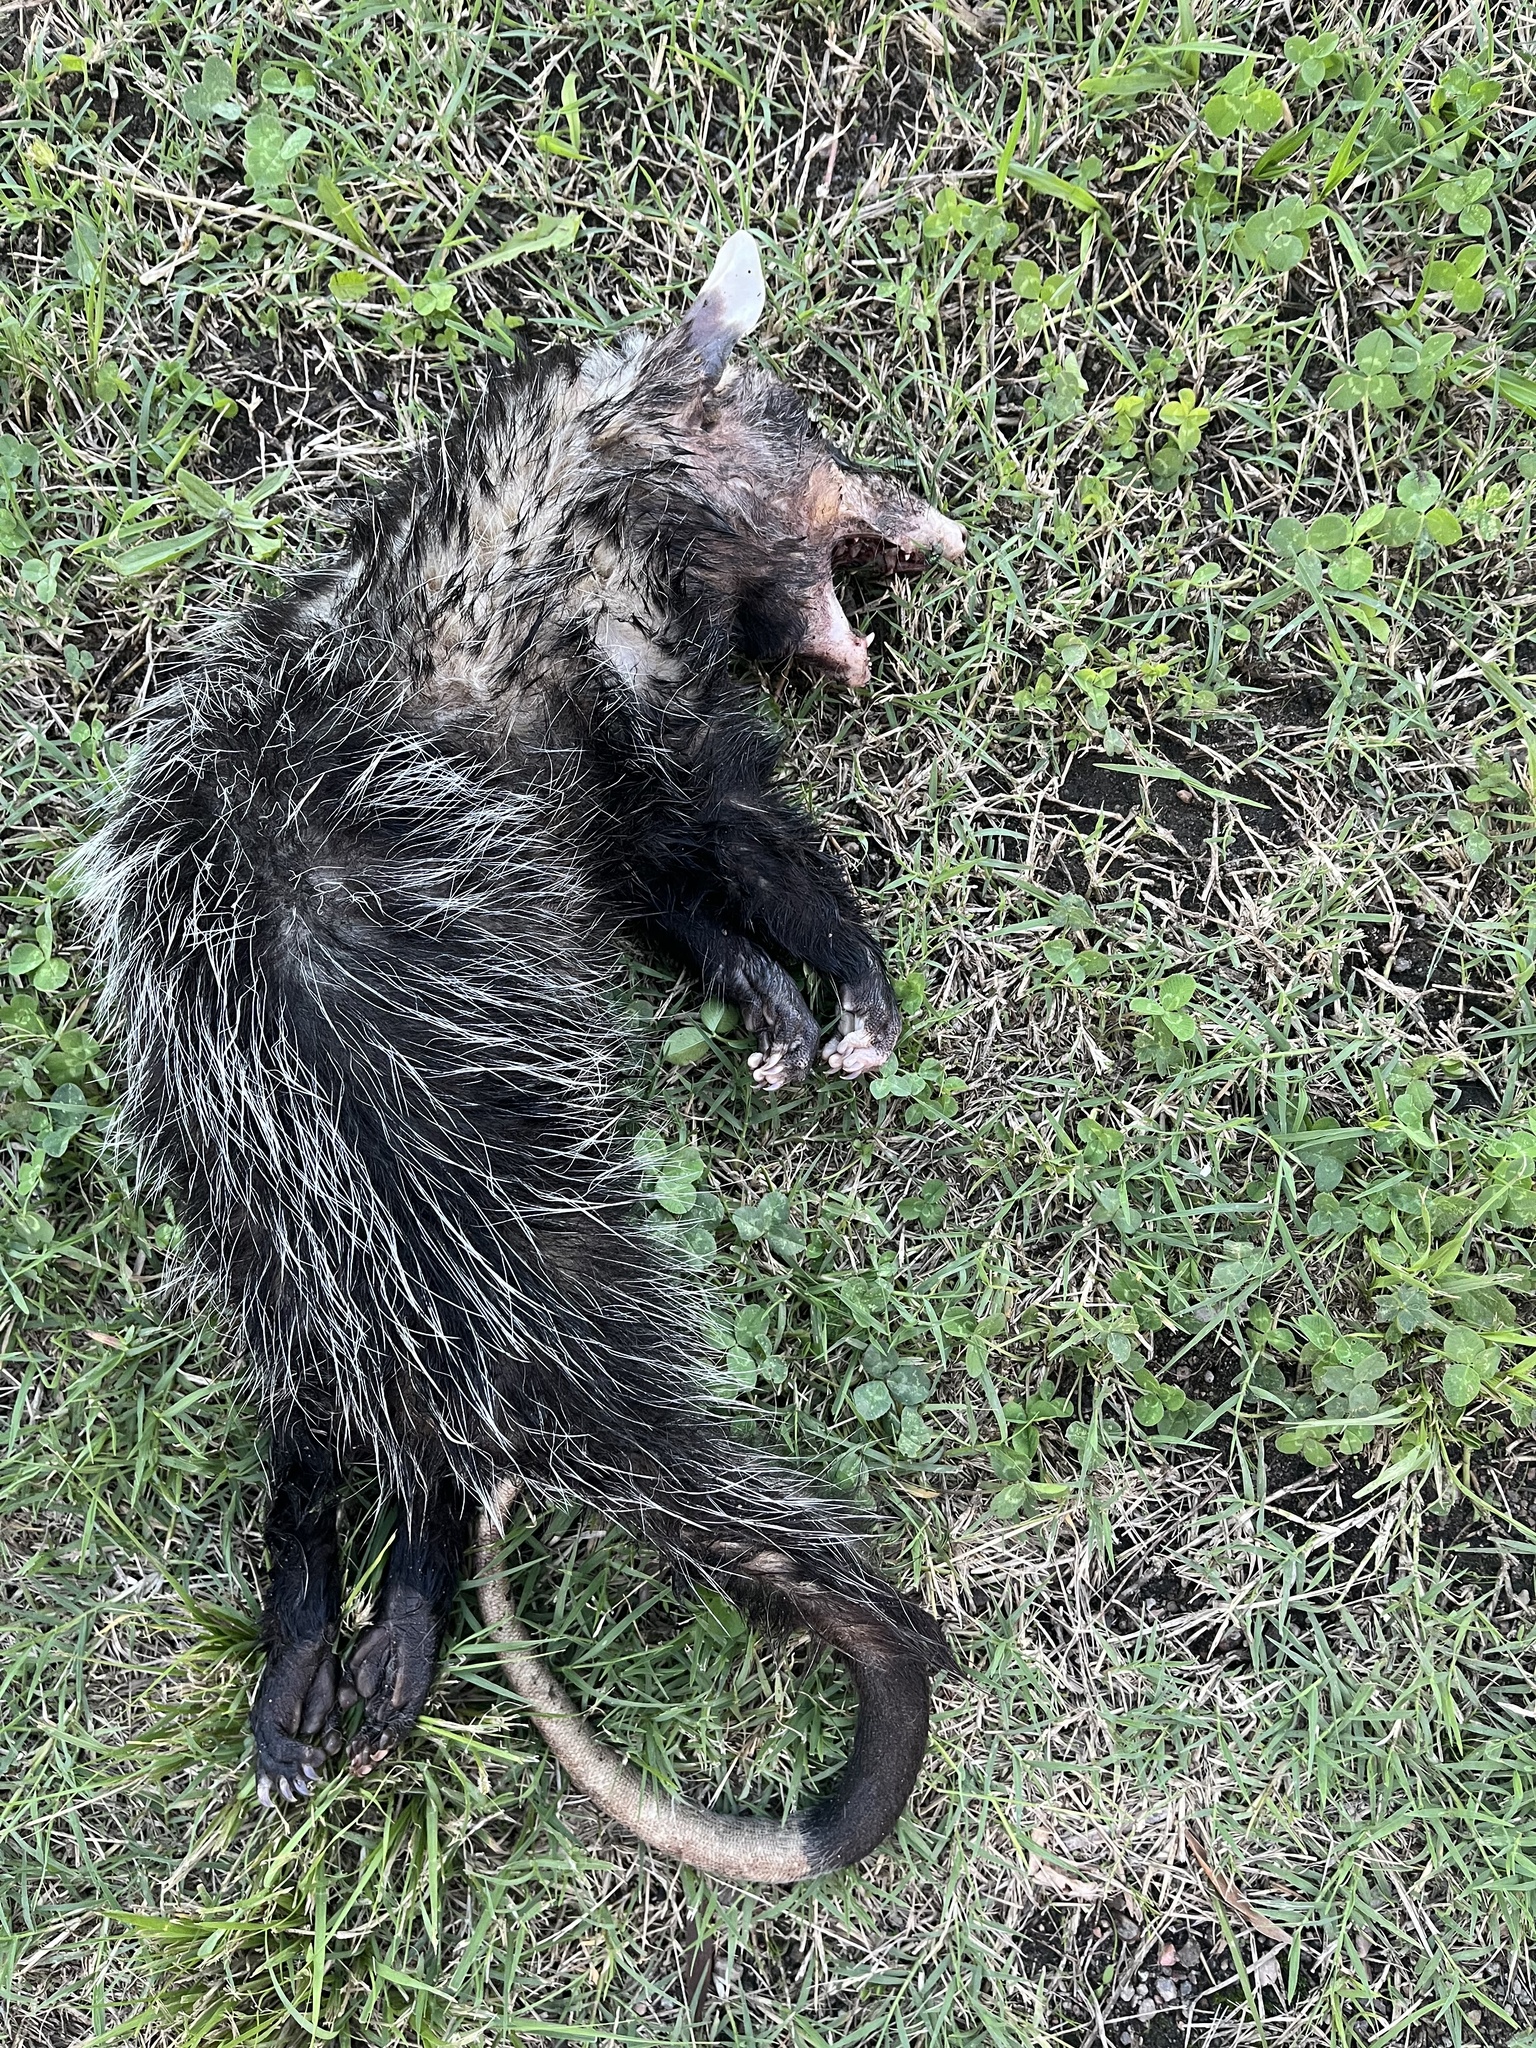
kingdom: Animalia
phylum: Chordata
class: Mammalia
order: Didelphimorphia
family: Didelphidae
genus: Didelphis
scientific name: Didelphis albiventris
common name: White-eared opossum
